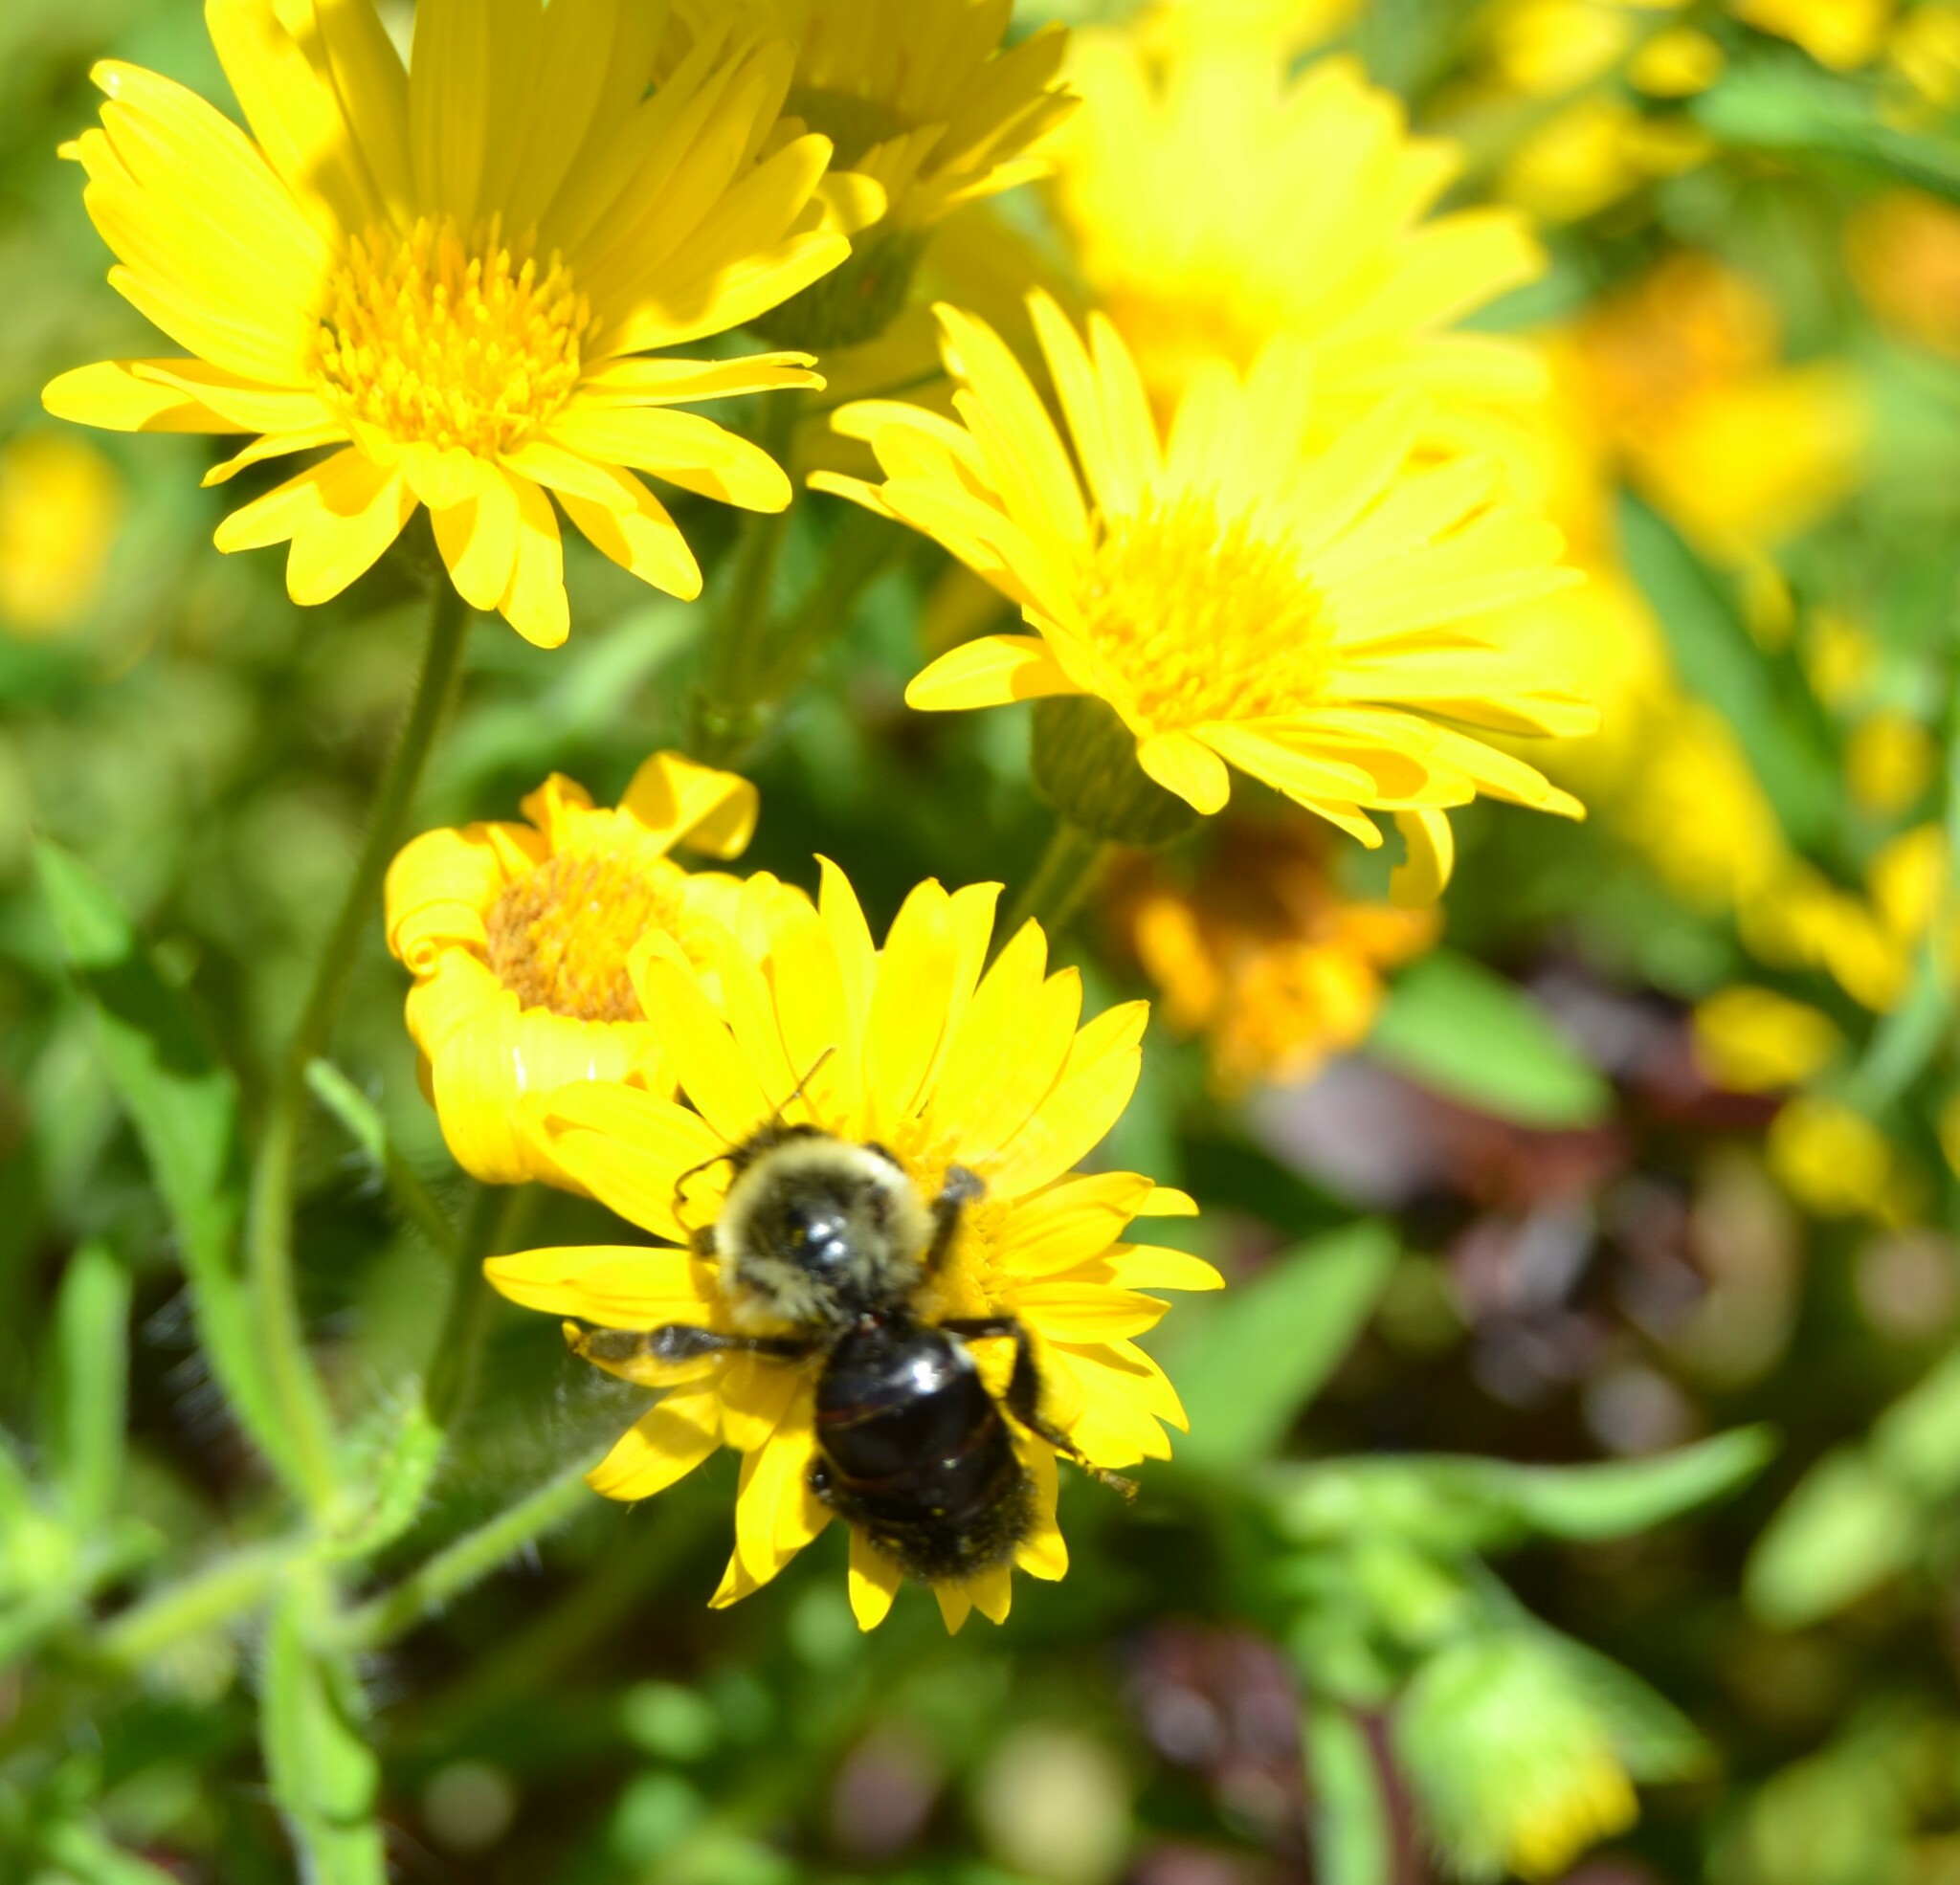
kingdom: Animalia
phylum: Arthropoda
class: Insecta
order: Hymenoptera
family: Apidae
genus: Bombus
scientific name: Bombus impatiens
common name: Common eastern bumble bee
